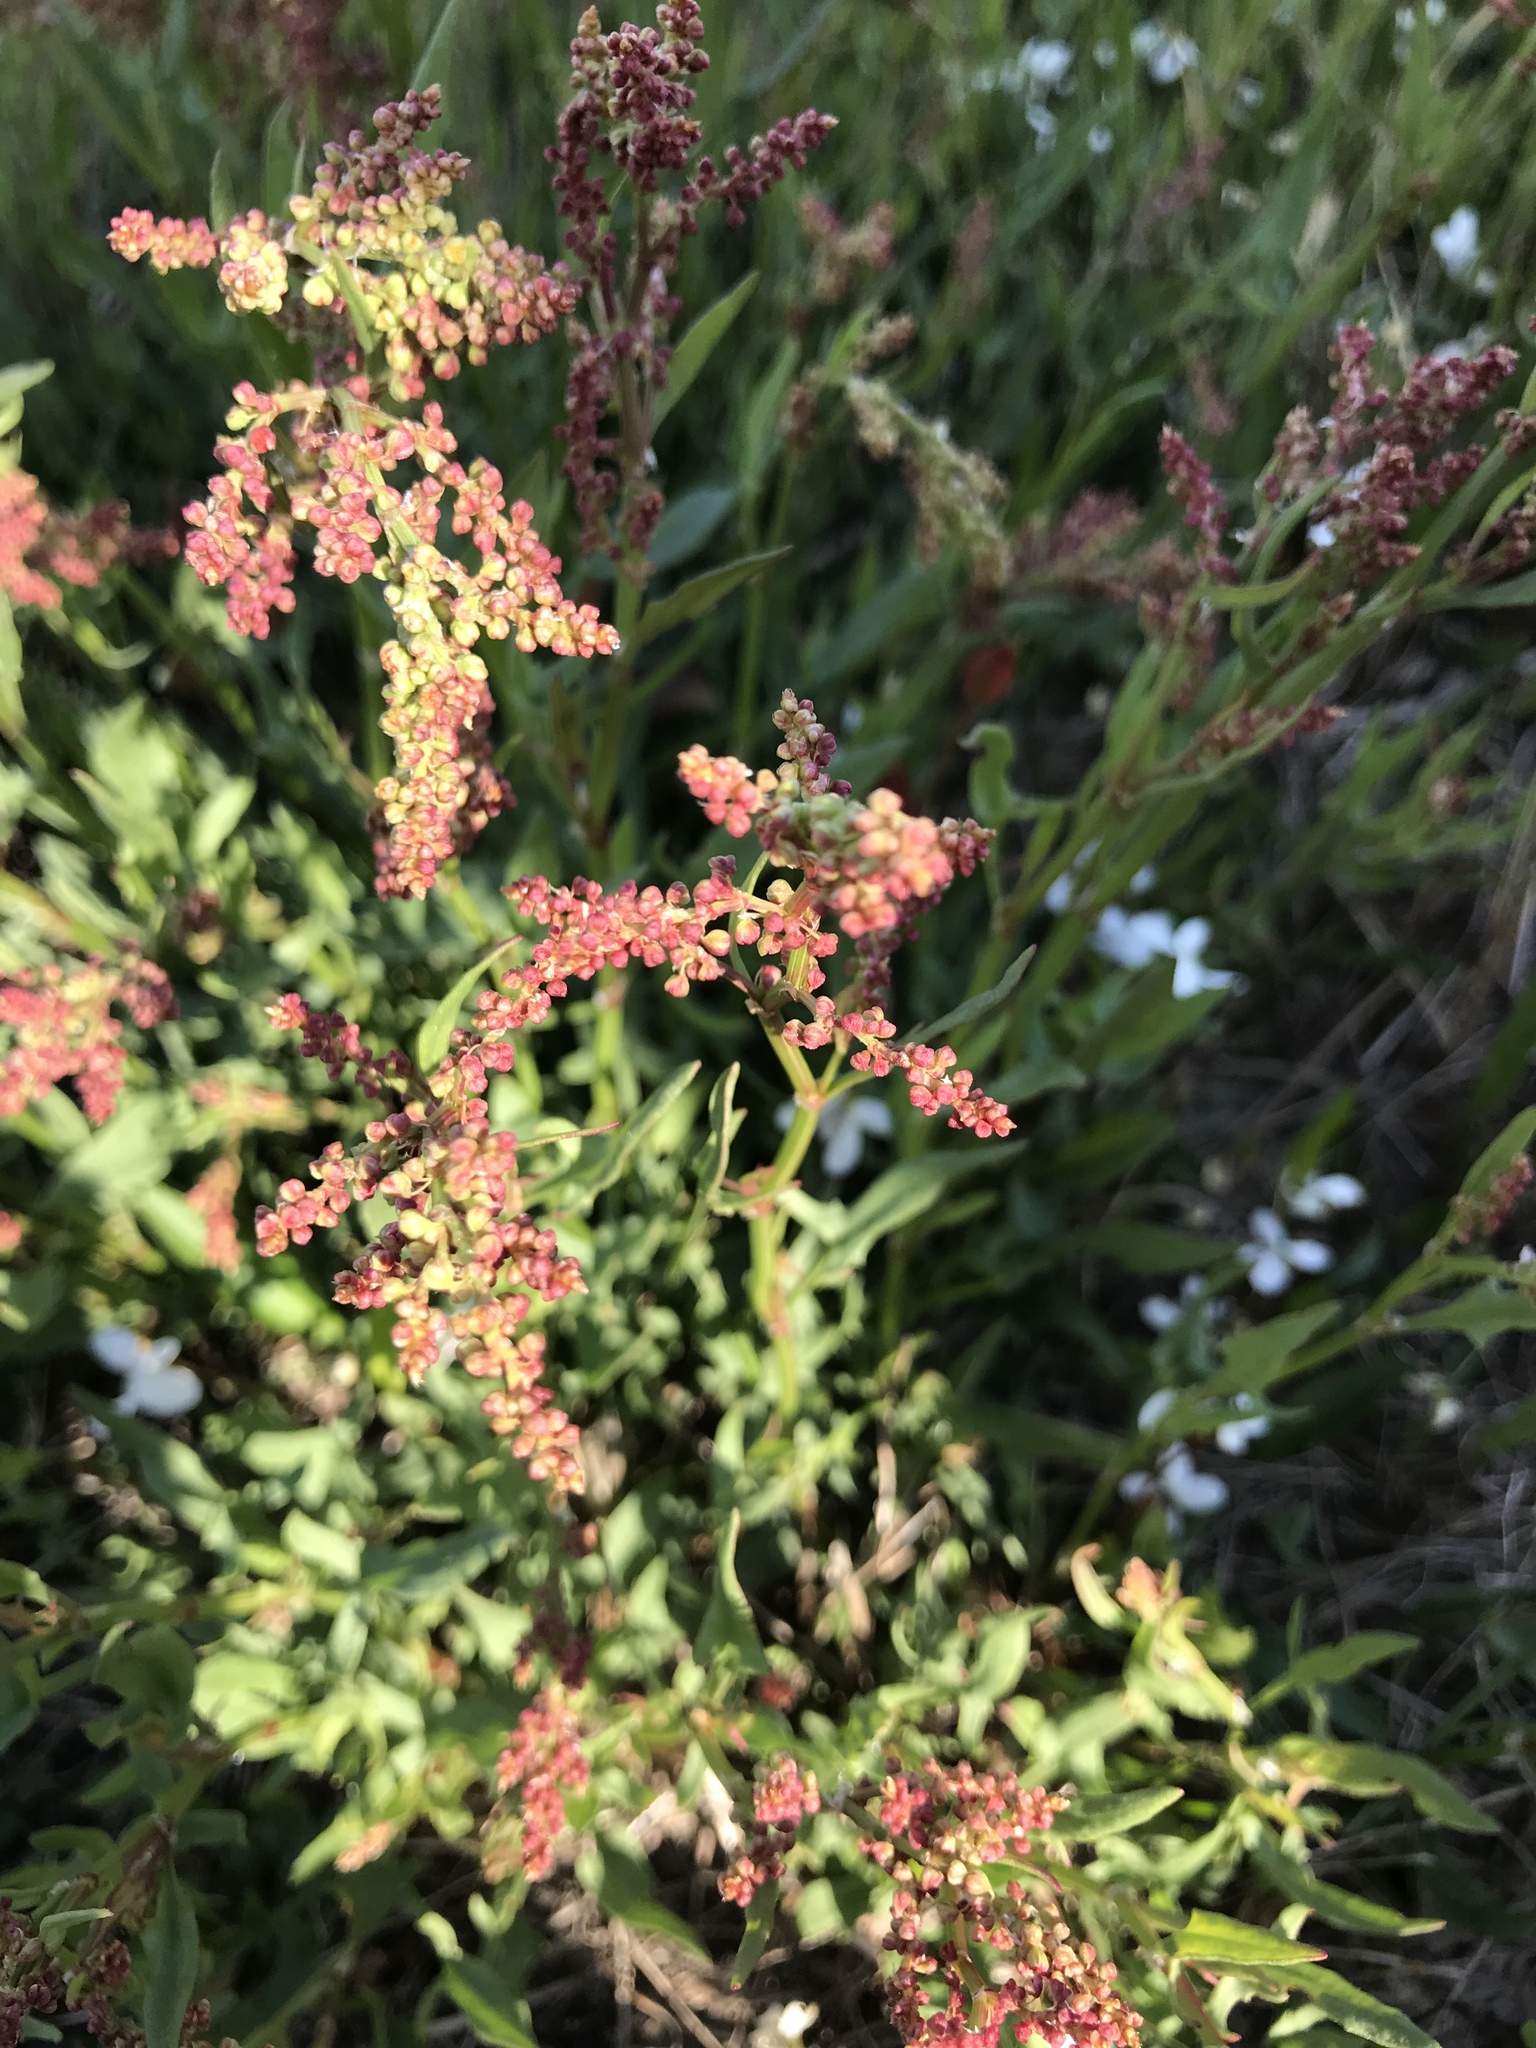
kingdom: Plantae
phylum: Tracheophyta
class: Magnoliopsida
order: Caryophyllales
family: Polygonaceae
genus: Rumex
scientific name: Rumex acetosella
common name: Common sheep sorrel
